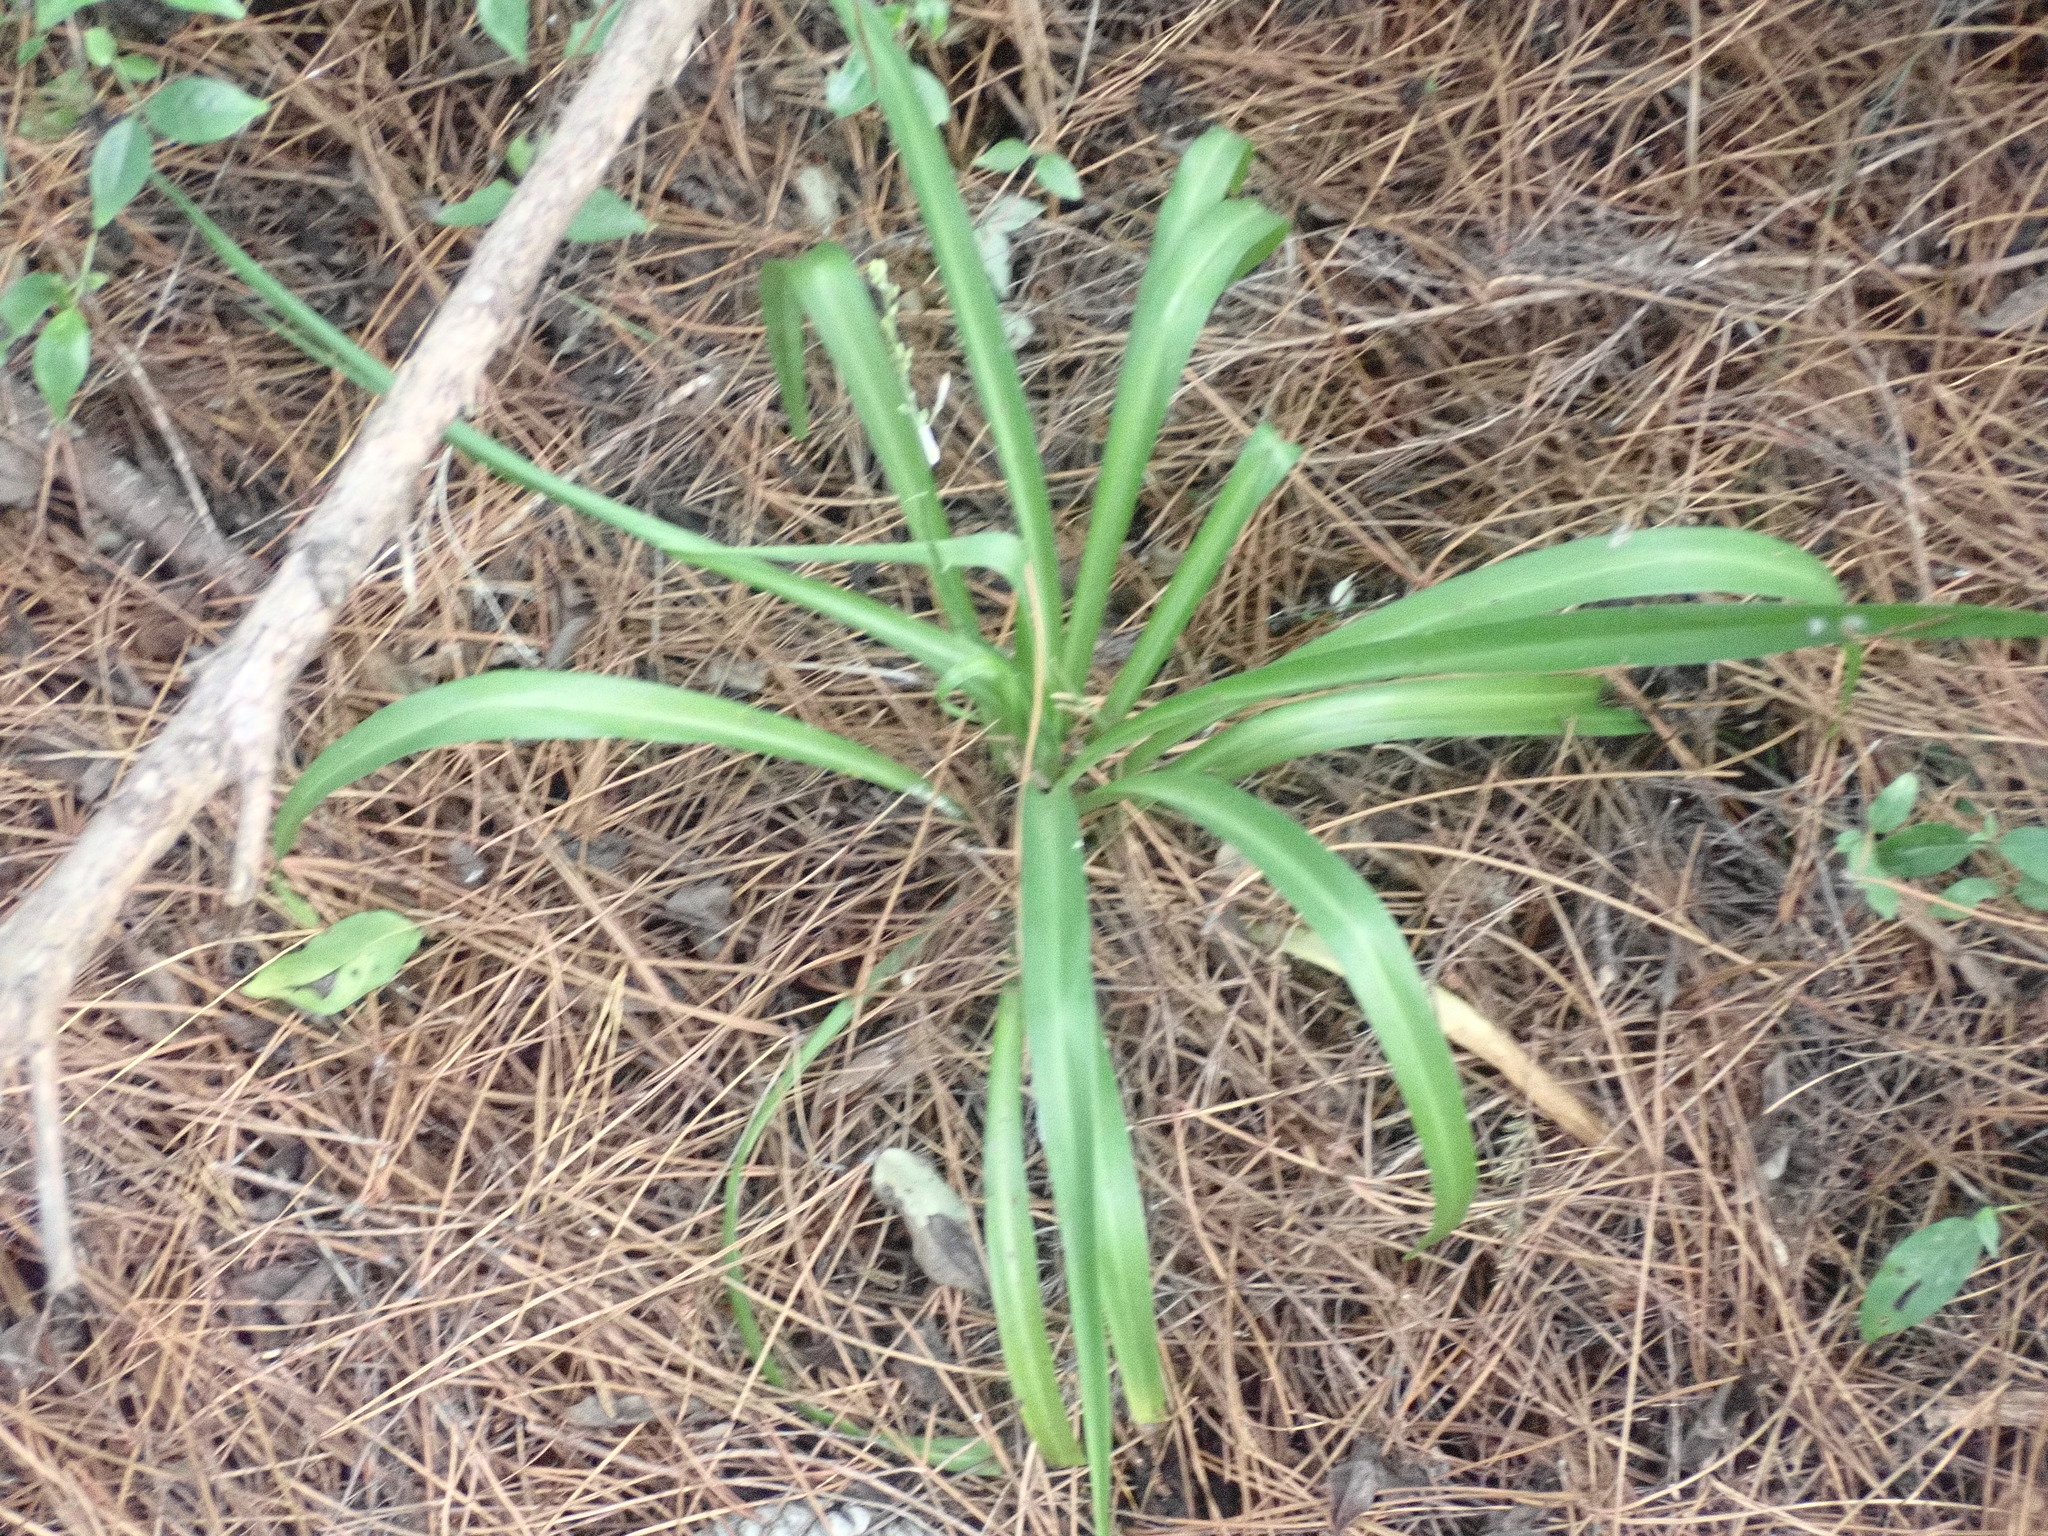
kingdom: Plantae
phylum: Tracheophyta
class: Liliopsida
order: Asparagales
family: Asparagaceae
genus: Chlorophytum
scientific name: Chlorophytum comosum
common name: Spider plant
